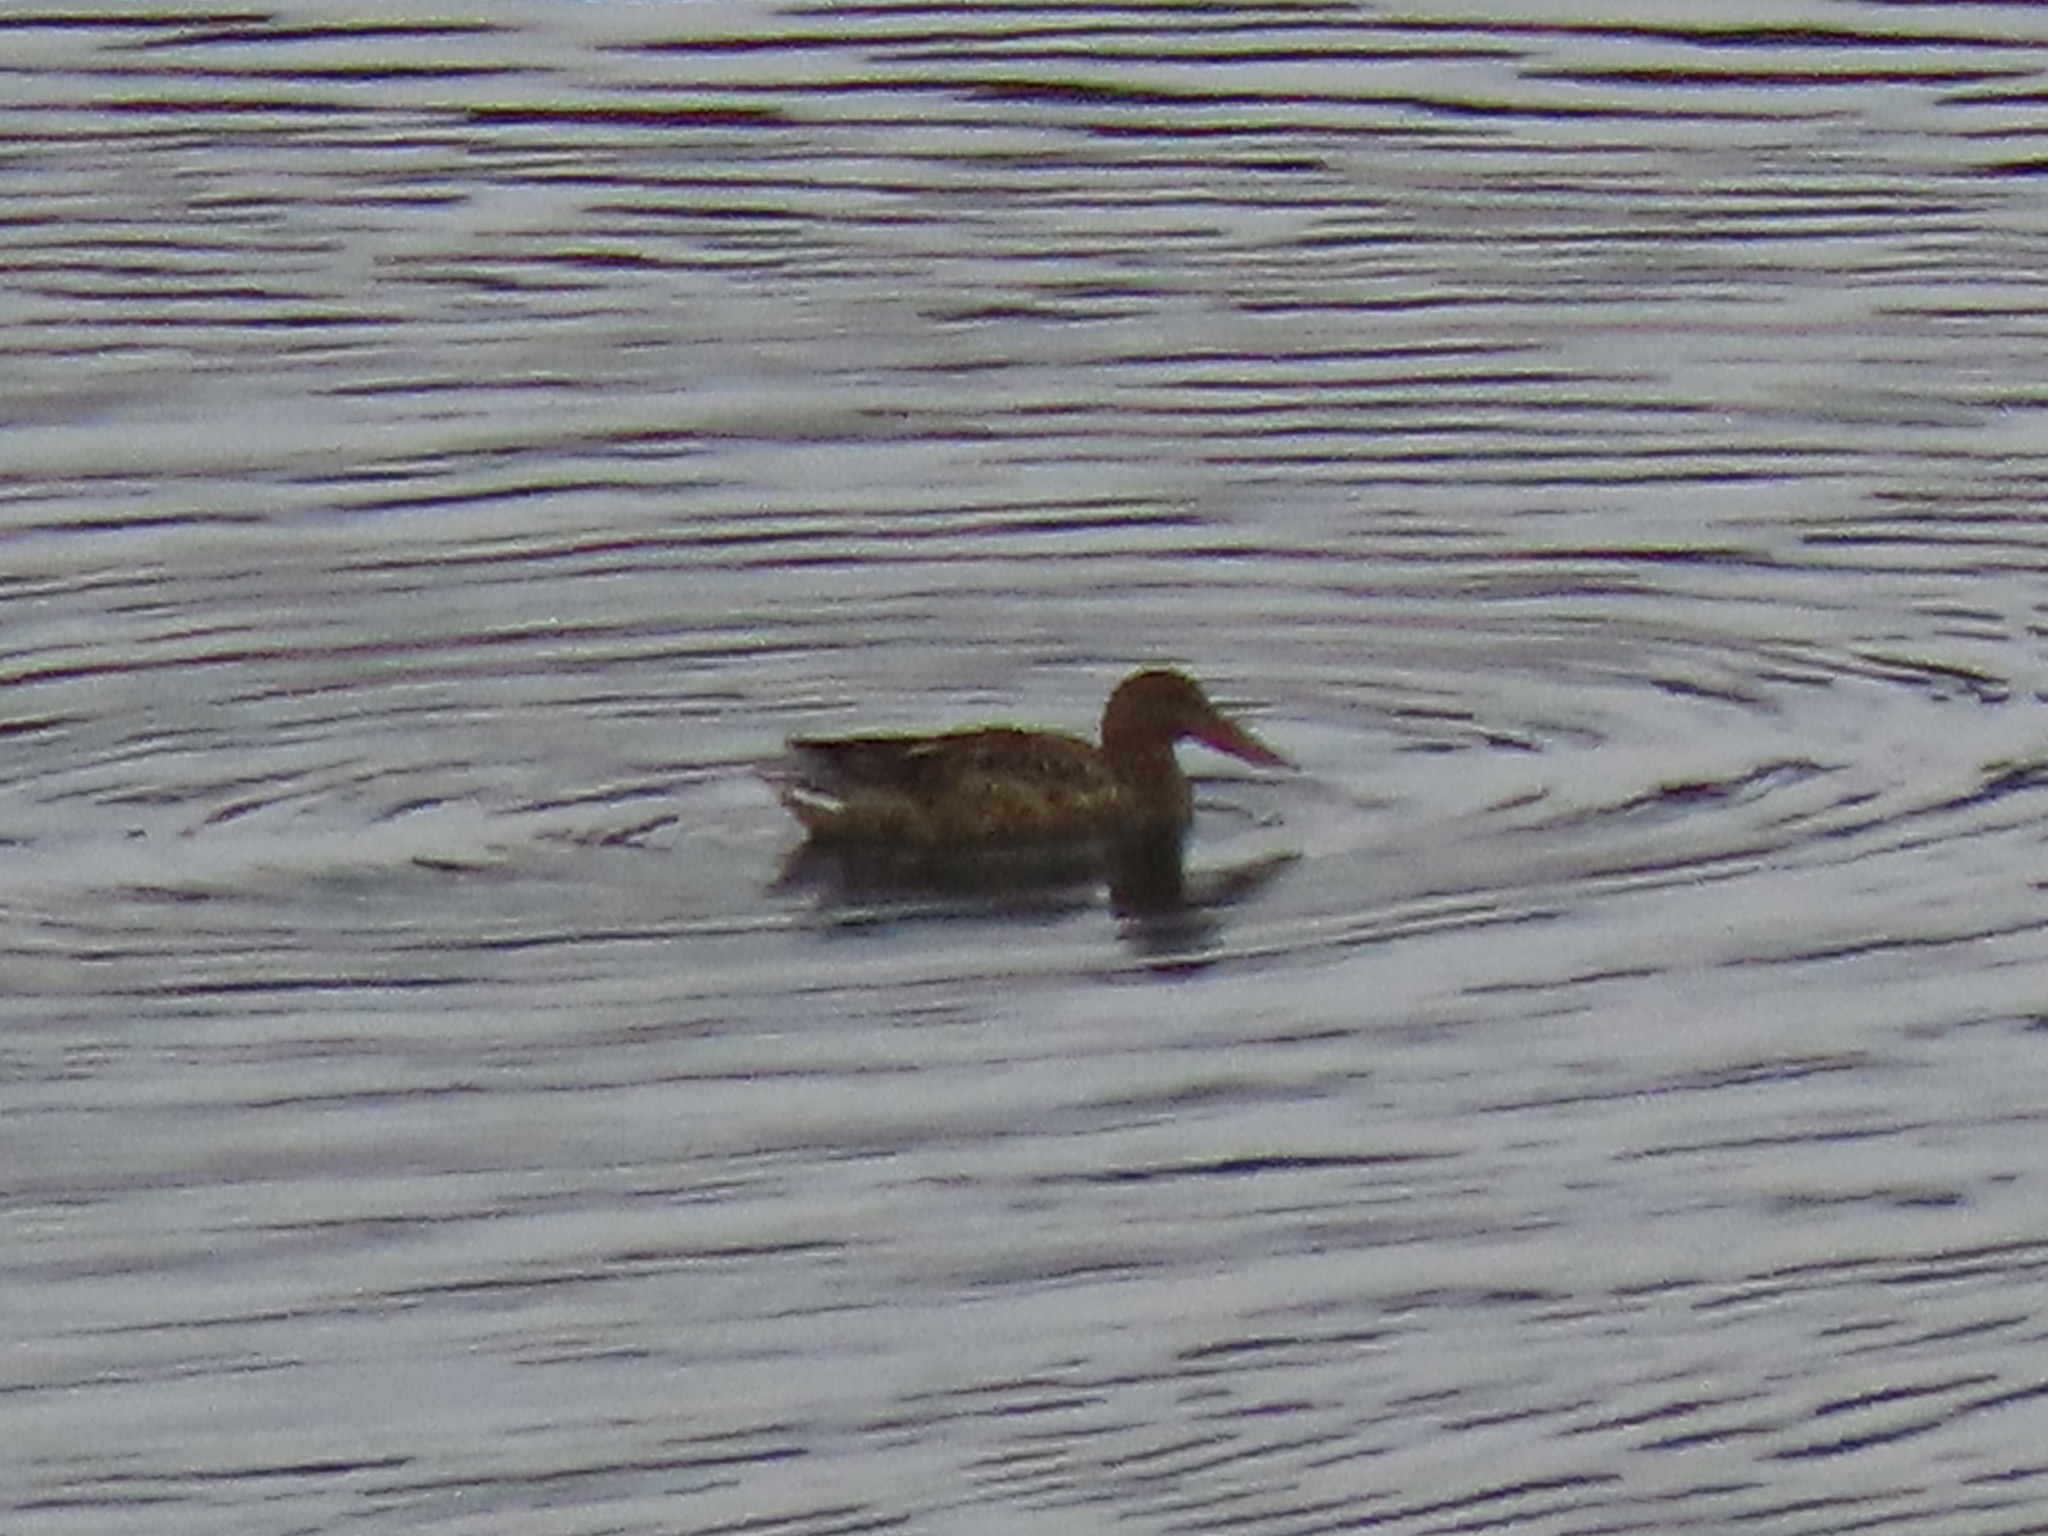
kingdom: Animalia
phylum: Chordata
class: Aves
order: Anseriformes
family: Anatidae
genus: Spatula
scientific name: Spatula clypeata
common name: Northern shoveler
